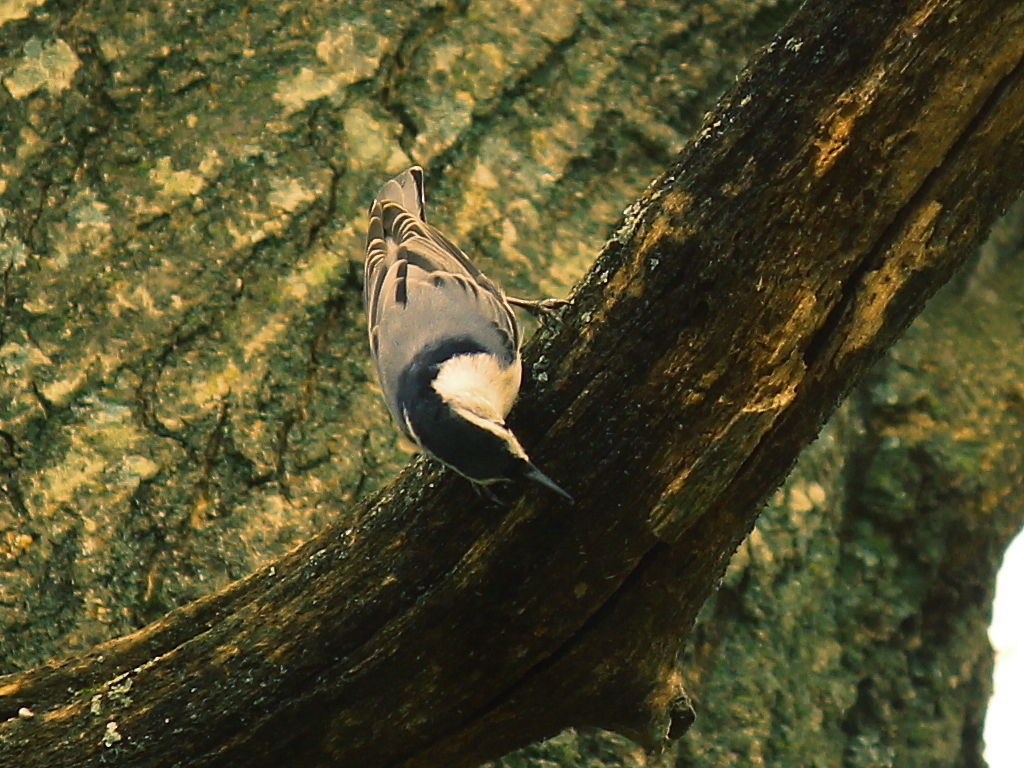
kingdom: Animalia
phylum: Chordata
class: Aves
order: Passeriformes
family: Sittidae
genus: Sitta
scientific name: Sitta carolinensis
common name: White-breasted nuthatch
